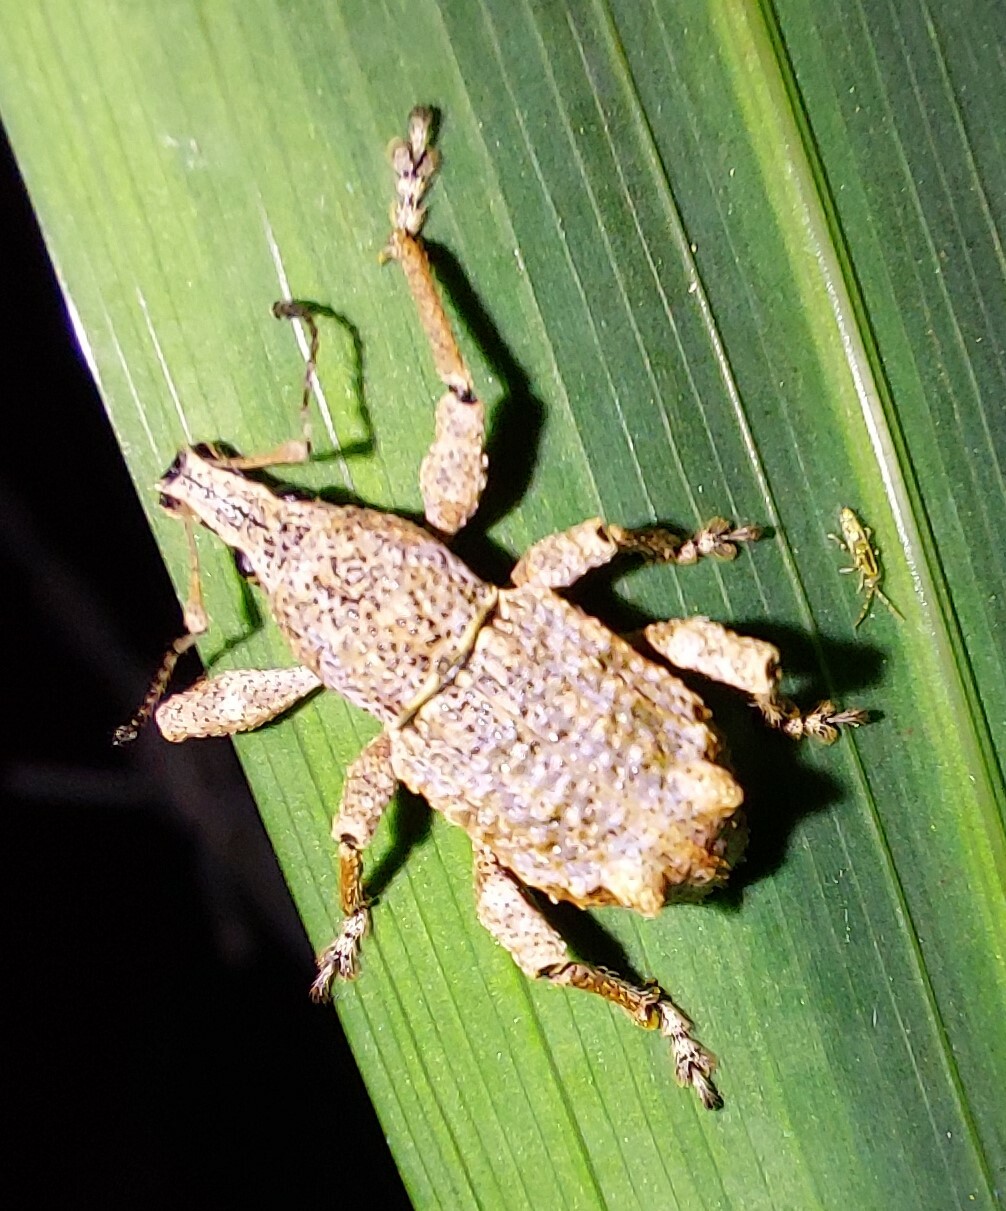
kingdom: Animalia
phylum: Arthropoda
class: Insecta
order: Coleoptera
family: Curculionidae
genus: Catoptes
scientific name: Catoptes binodis
